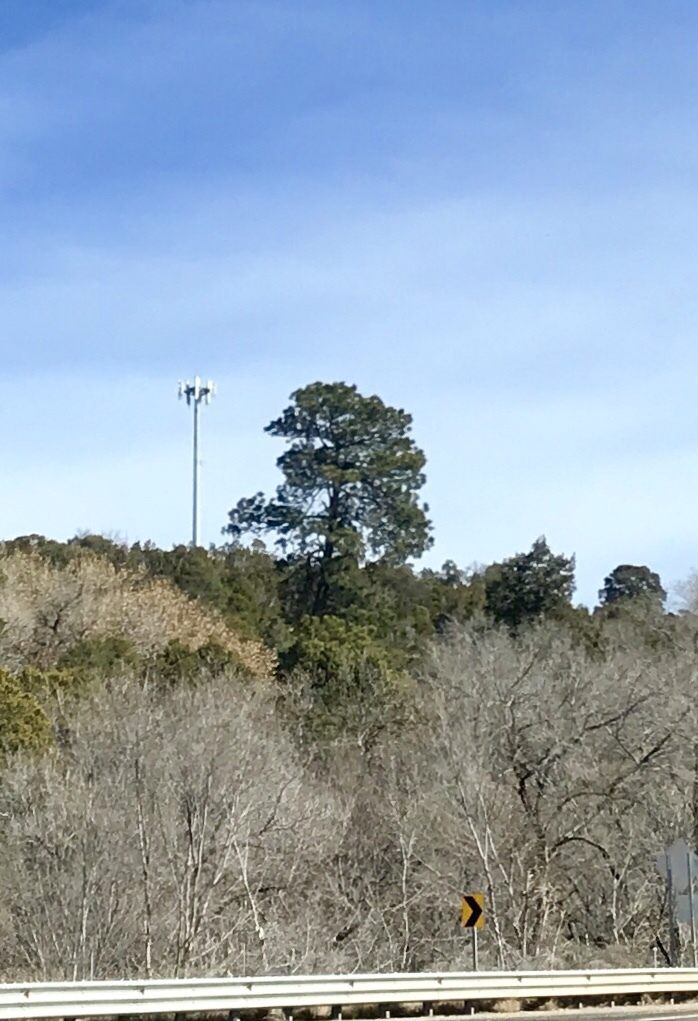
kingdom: Plantae
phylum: Tracheophyta
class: Pinopsida
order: Pinales
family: Pinaceae
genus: Pinus
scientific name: Pinus ponderosa
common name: Western yellow-pine
